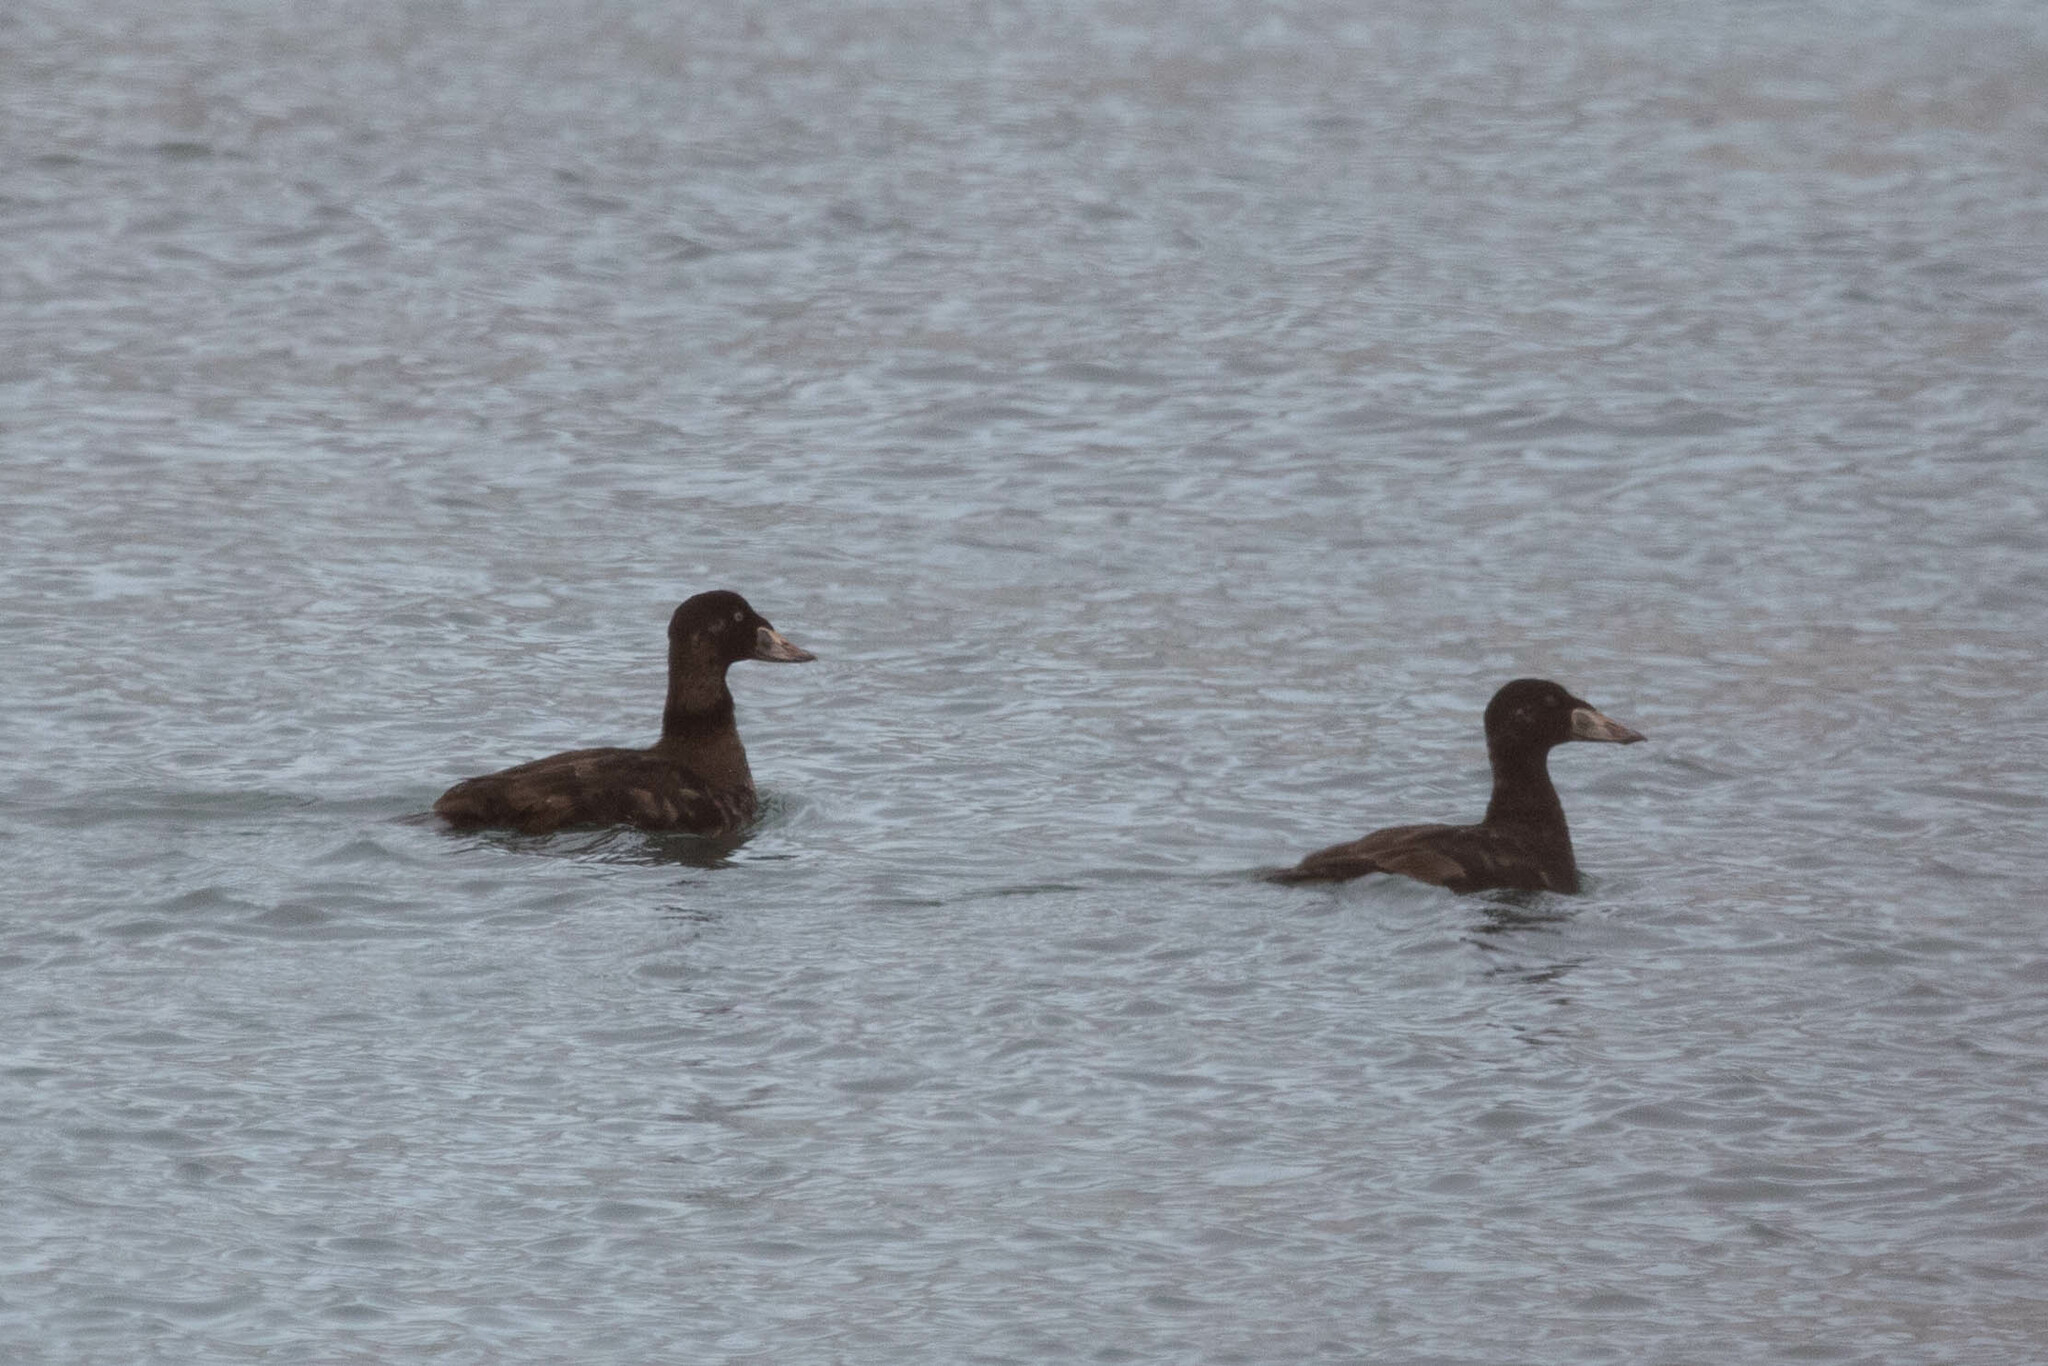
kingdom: Animalia
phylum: Chordata
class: Aves
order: Anseriformes
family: Anatidae
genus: Melanitta
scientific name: Melanitta perspicillata
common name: Surf scoter
